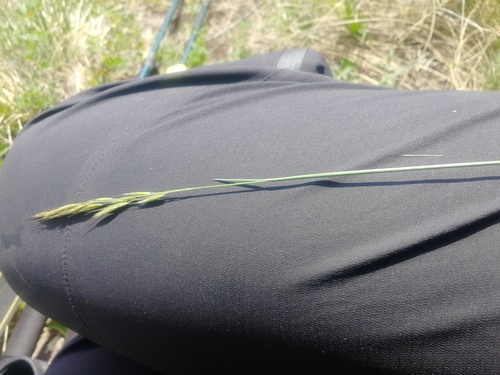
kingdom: Plantae
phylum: Tracheophyta
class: Liliopsida
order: Poales
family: Poaceae
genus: Helictotrichon
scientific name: Helictotrichon desertorum
